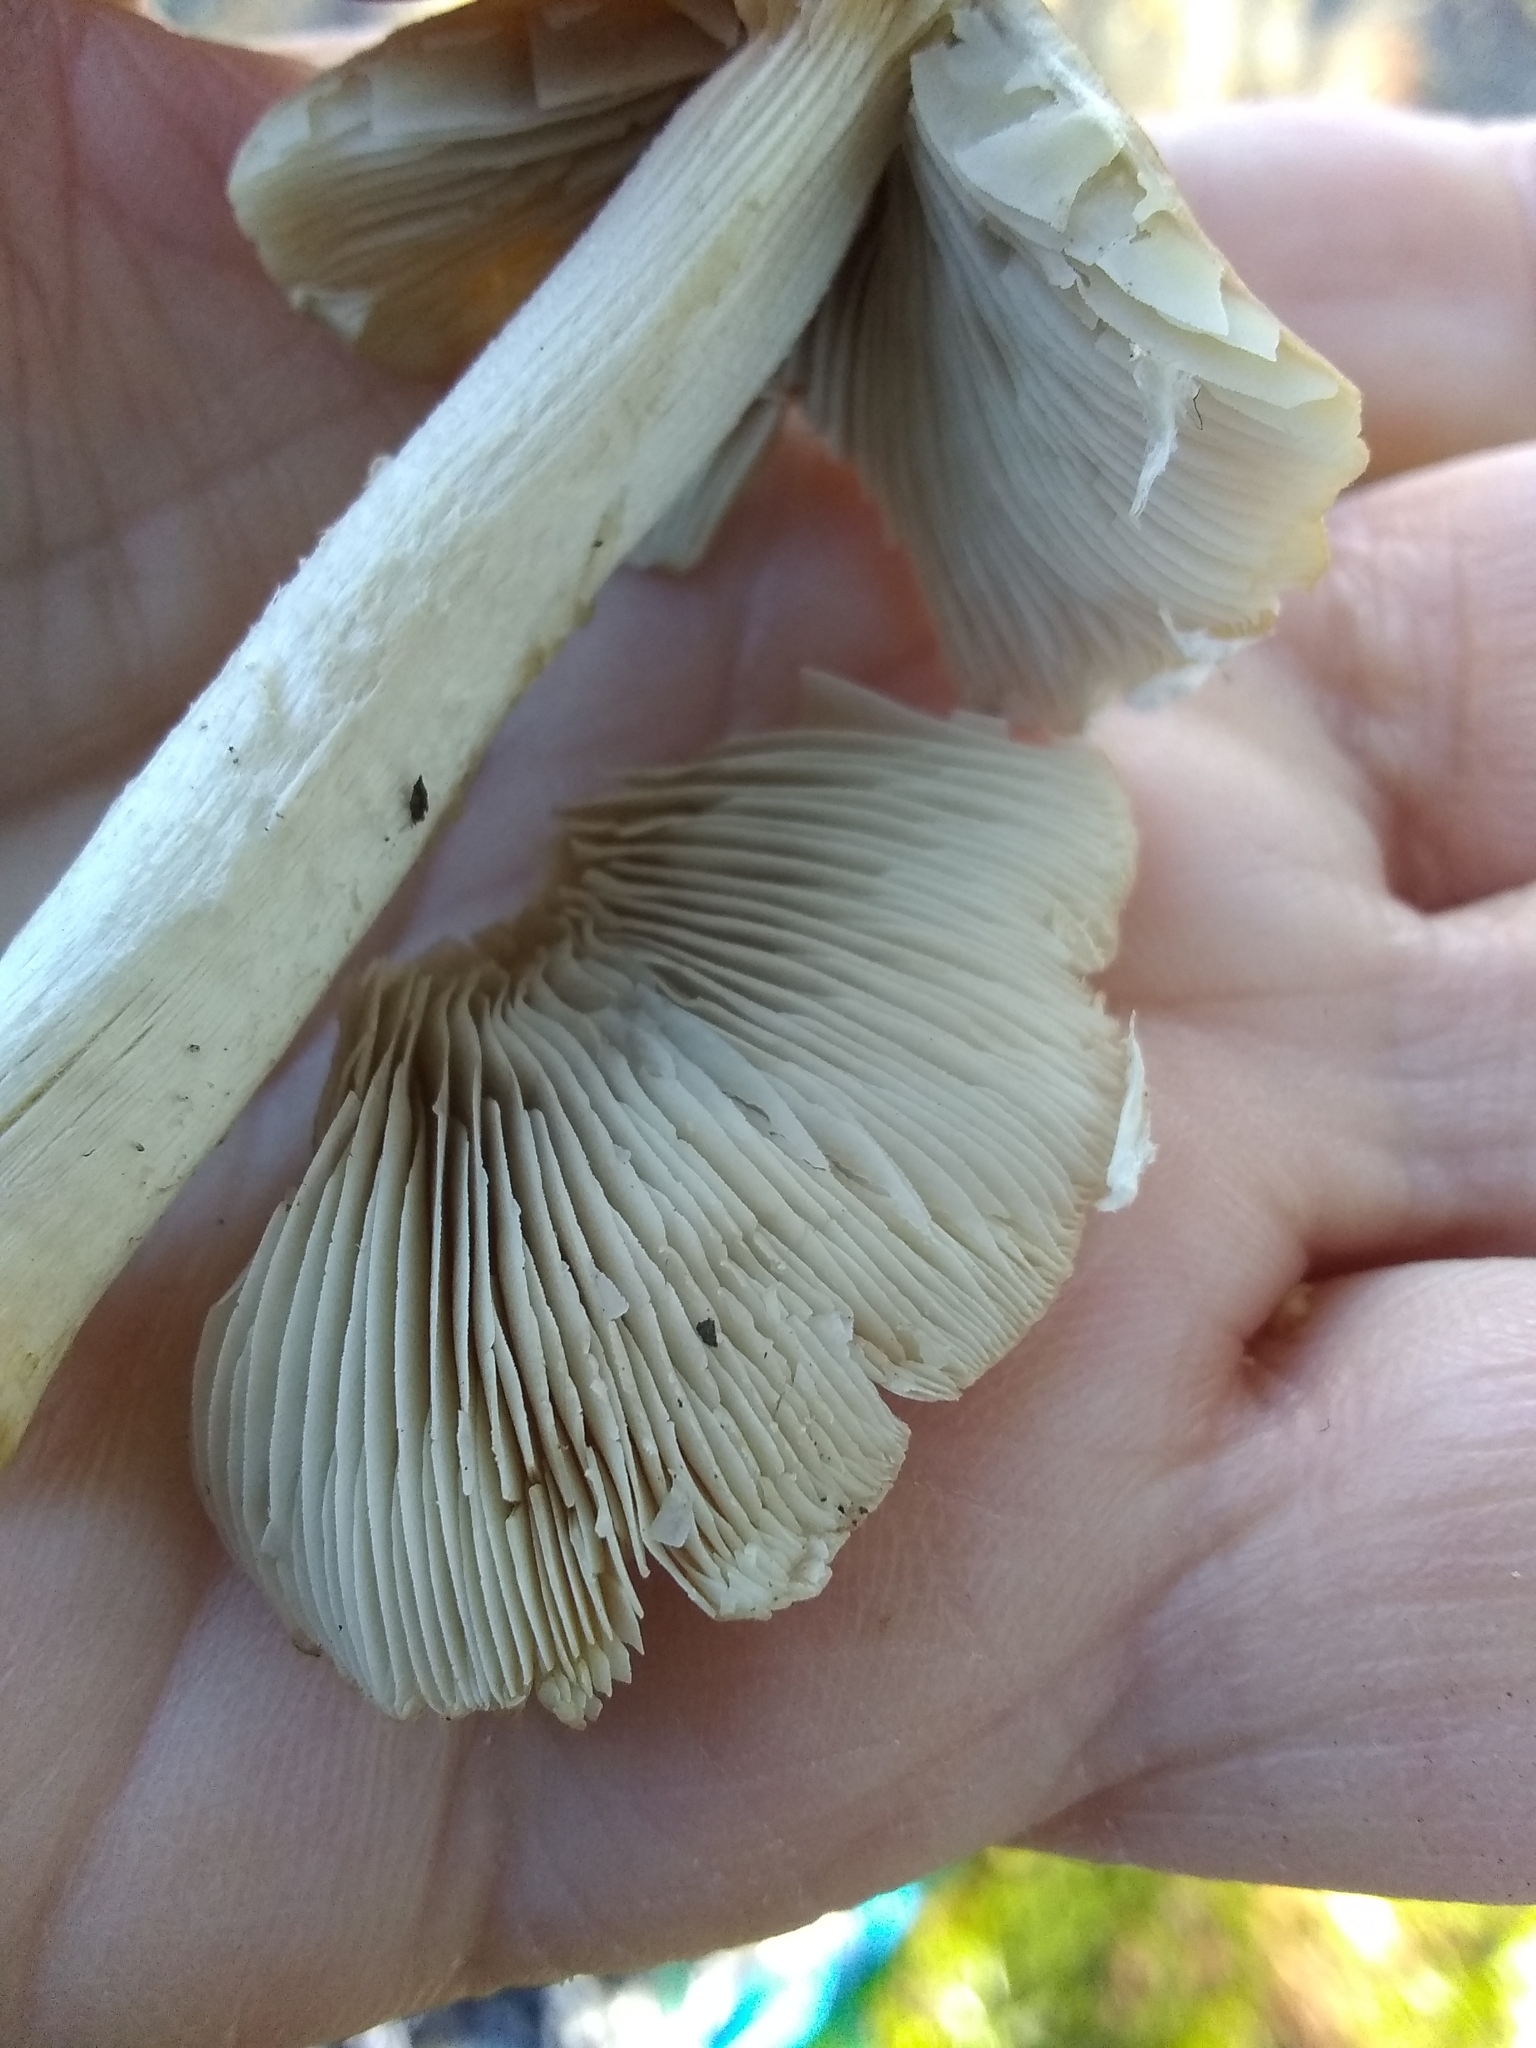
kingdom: Fungi
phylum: Basidiomycota
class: Agaricomycetes
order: Agaricales
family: Psathyrellaceae
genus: Candolleomyces
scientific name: Candolleomyces candolleanus
